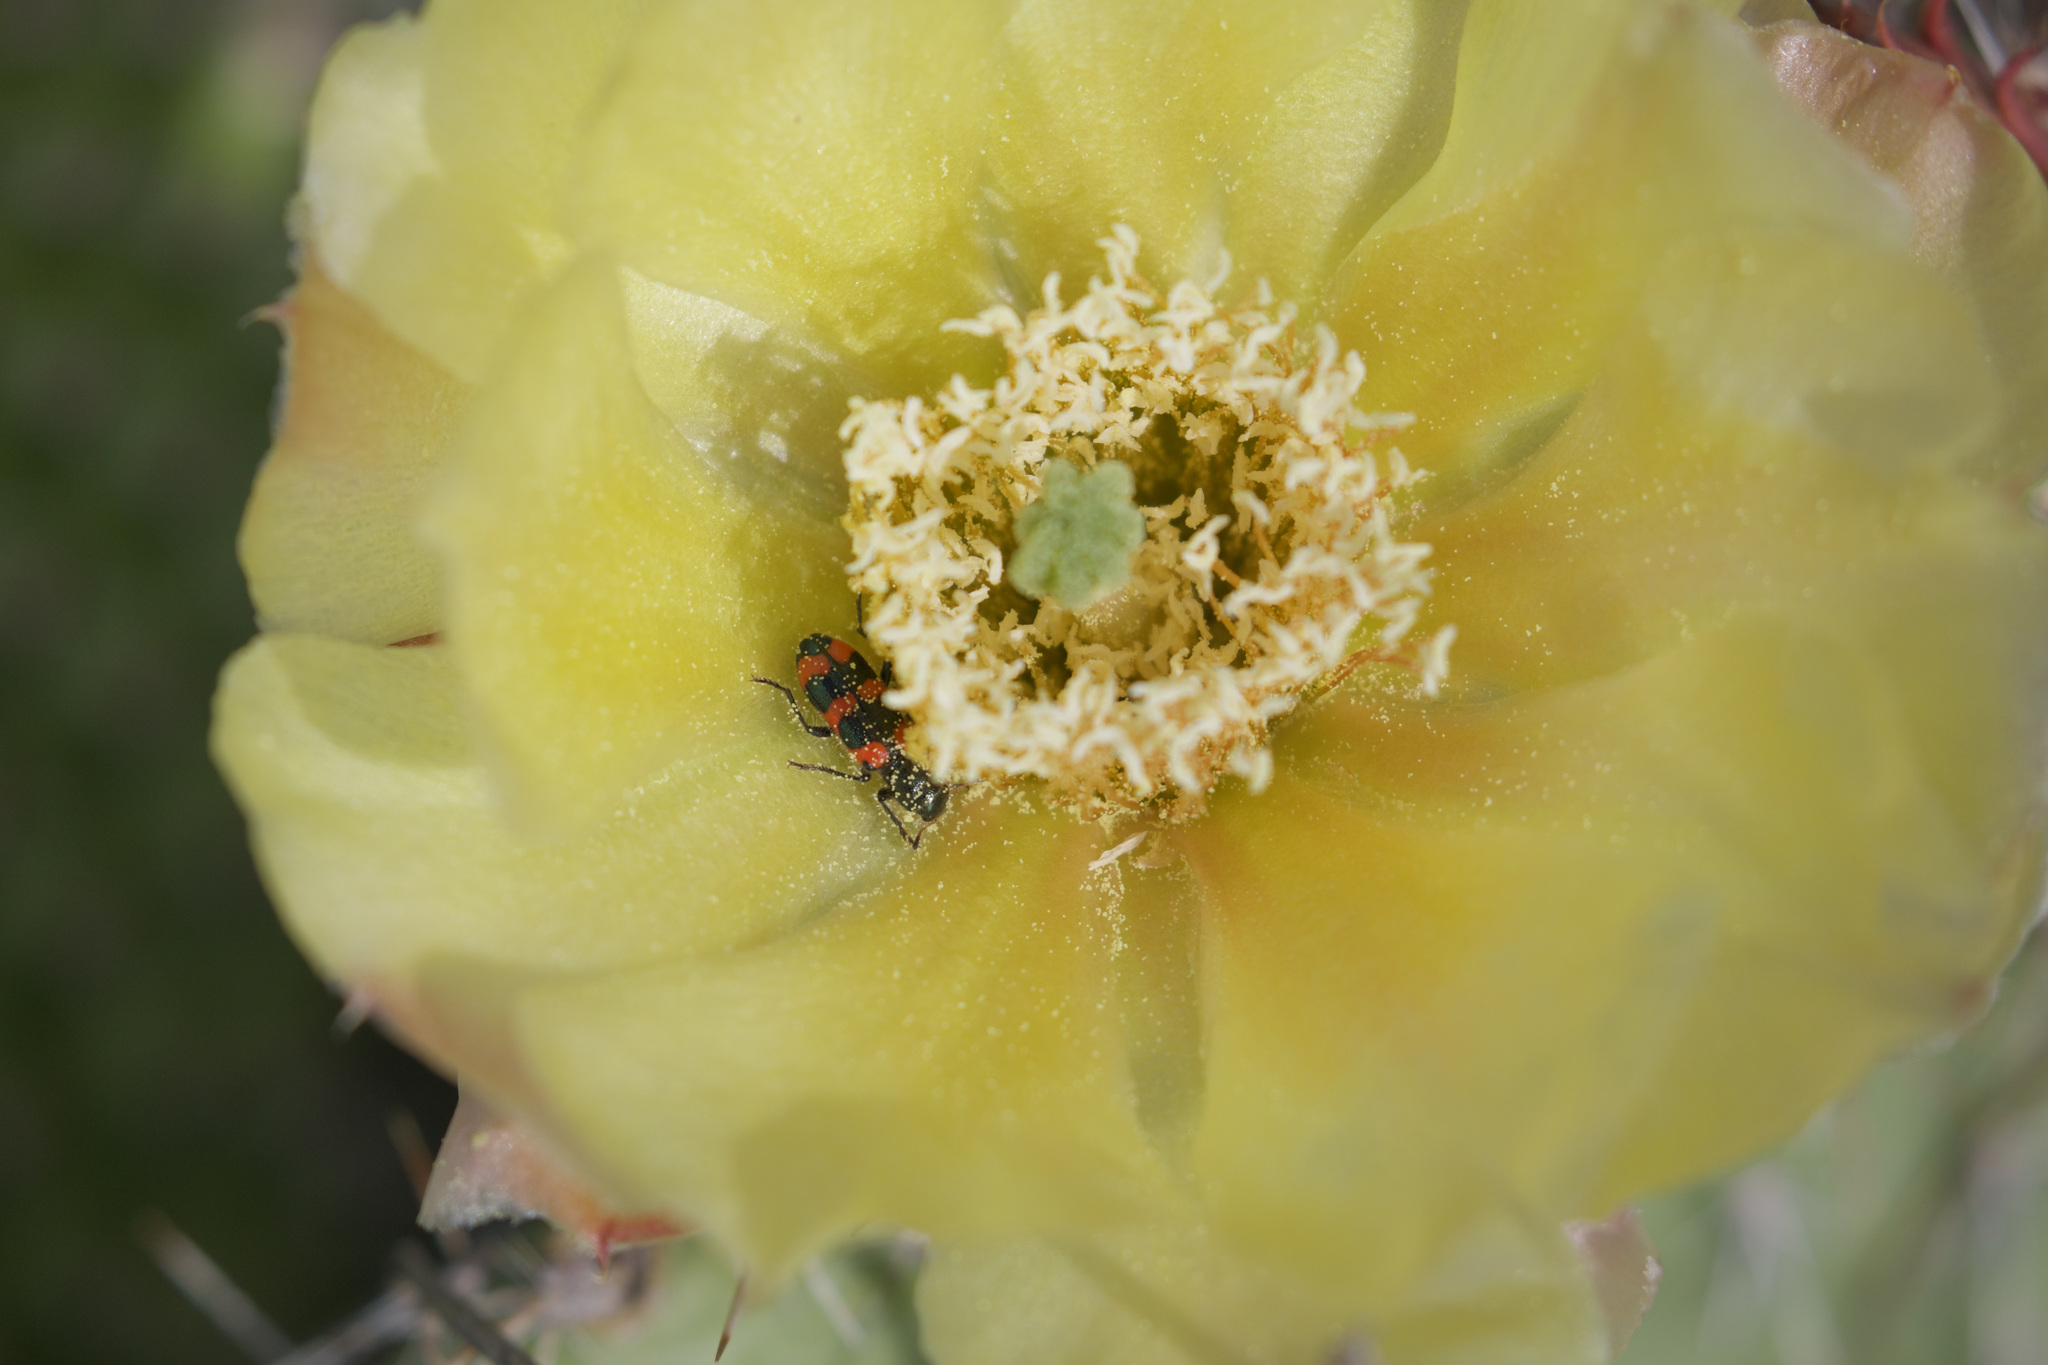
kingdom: Animalia
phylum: Arthropoda
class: Insecta
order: Coleoptera
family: Cleridae
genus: Trichodes
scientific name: Trichodes nutalli
